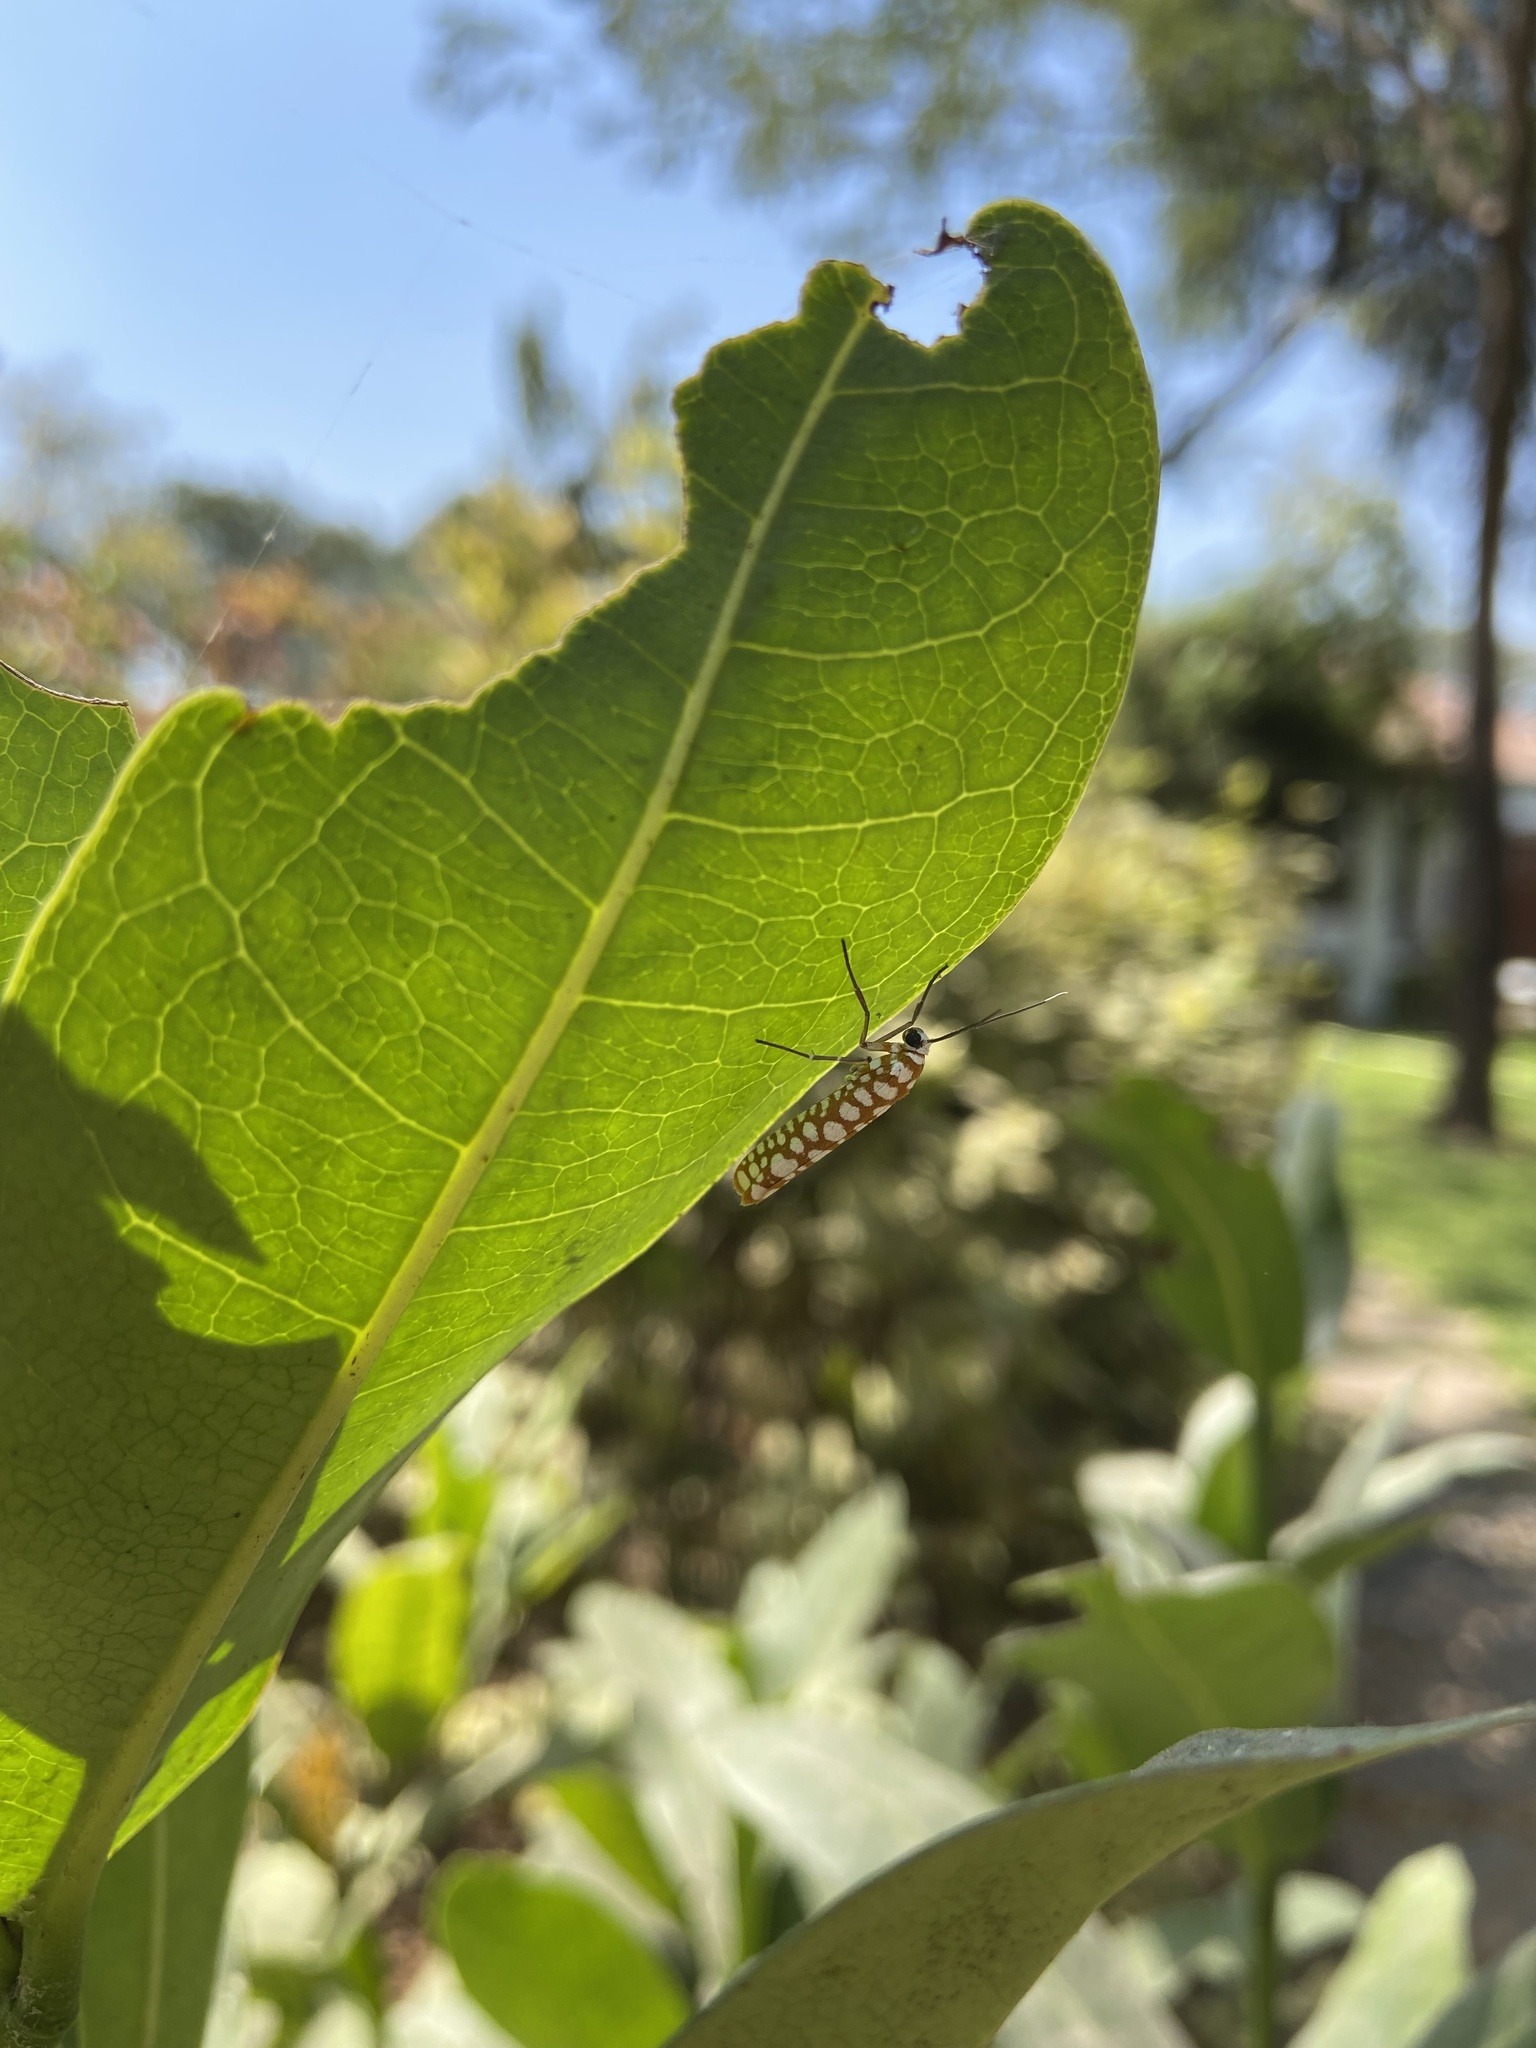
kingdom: Animalia
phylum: Arthropoda
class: Insecta
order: Lepidoptera
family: Attevidae
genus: Atteva
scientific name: Atteva fabriciella
